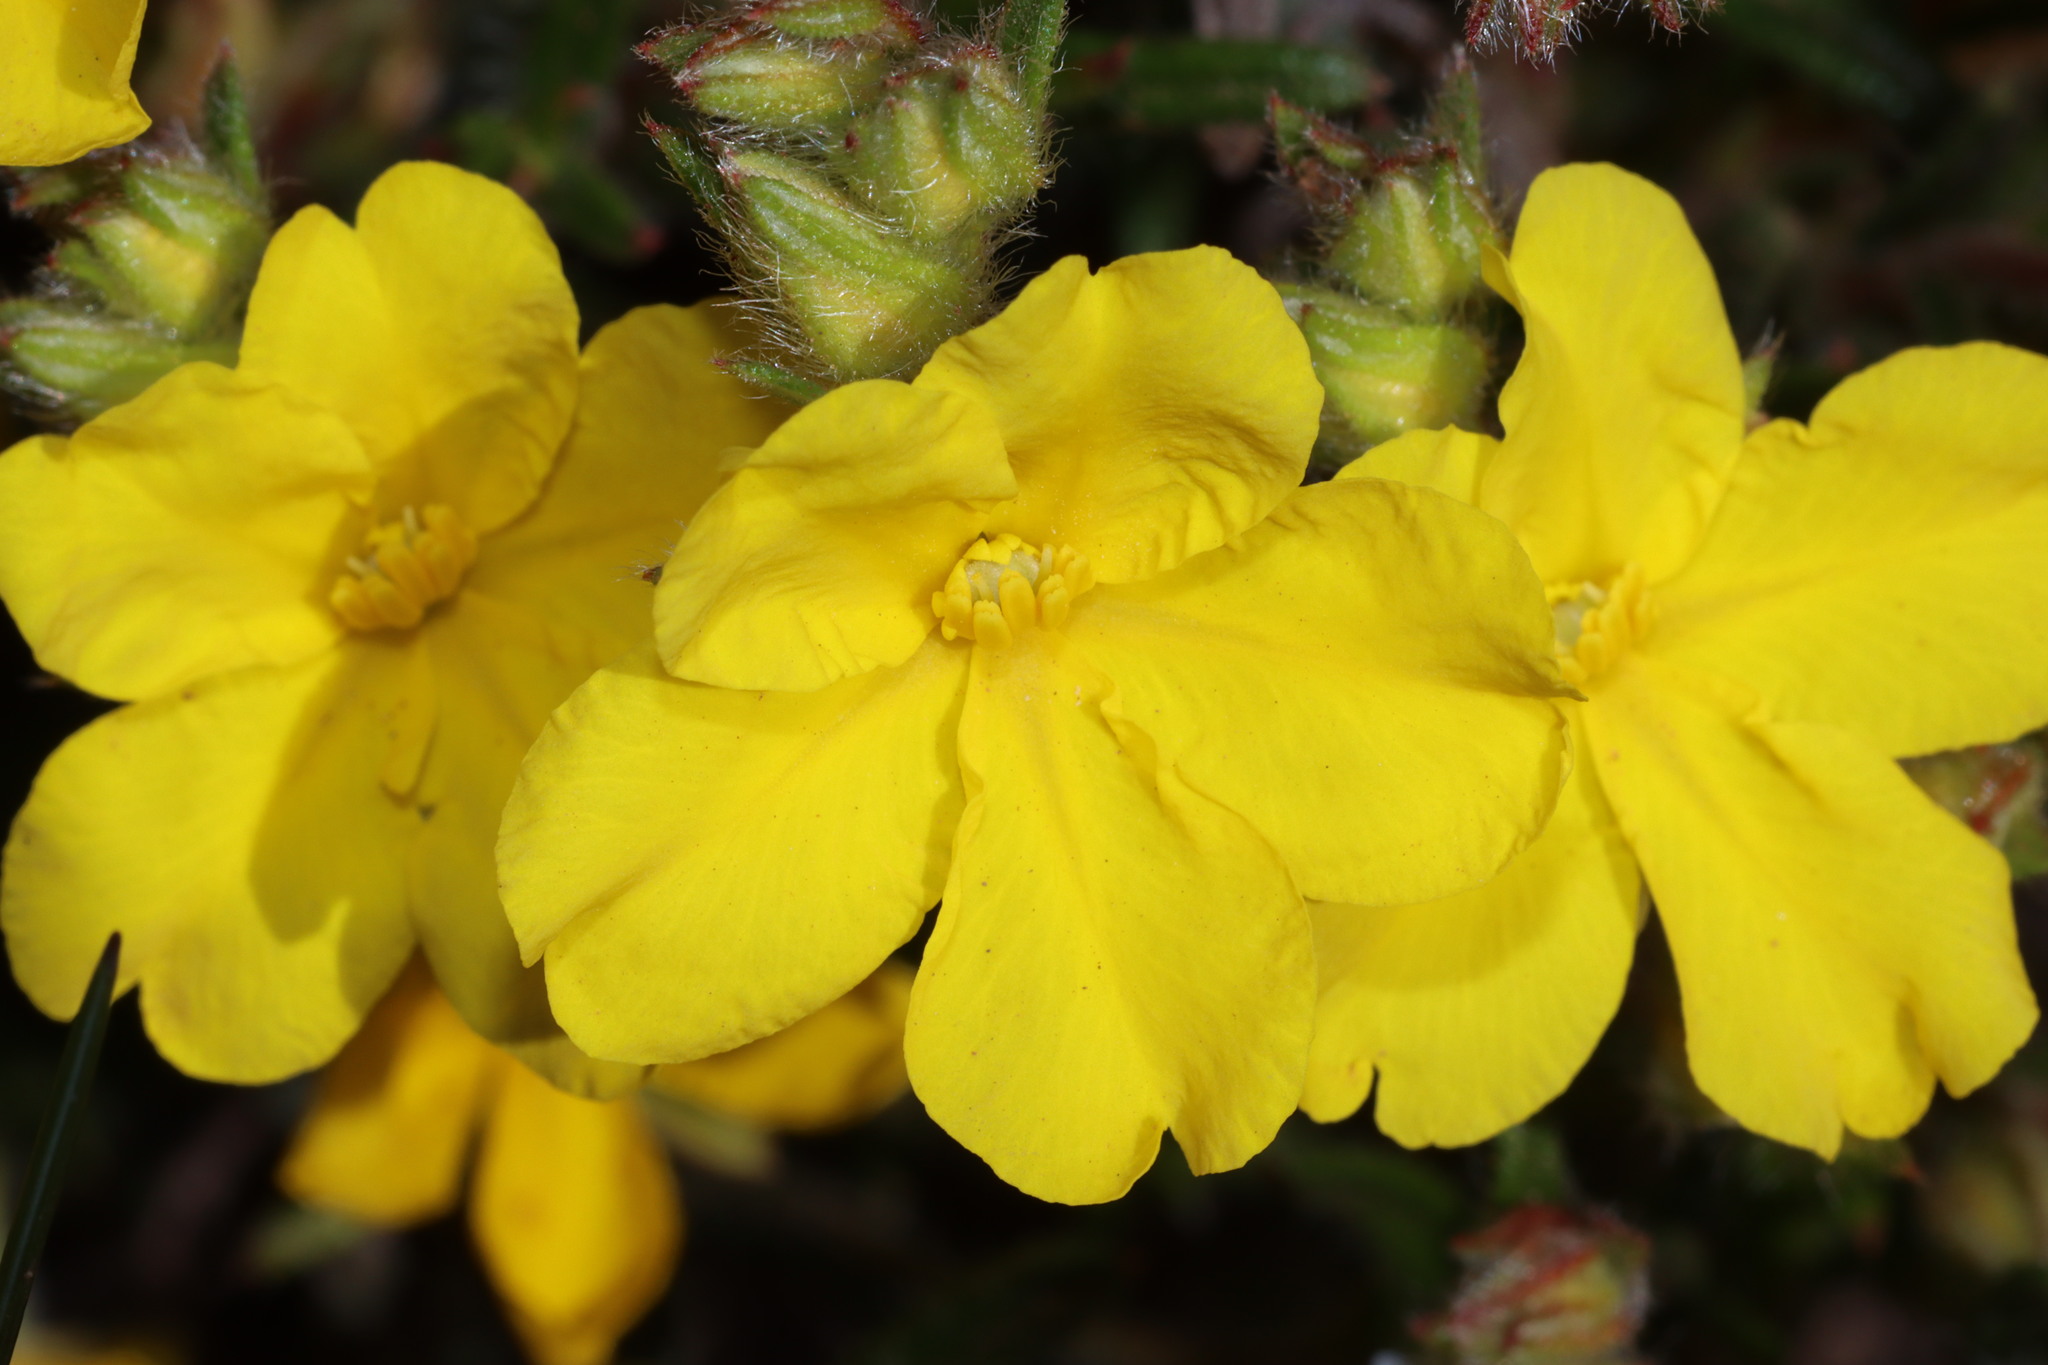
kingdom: Plantae
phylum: Tracheophyta
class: Magnoliopsida
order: Dilleniales
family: Dilleniaceae
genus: Hibbertia
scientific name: Hibbertia polystachya
